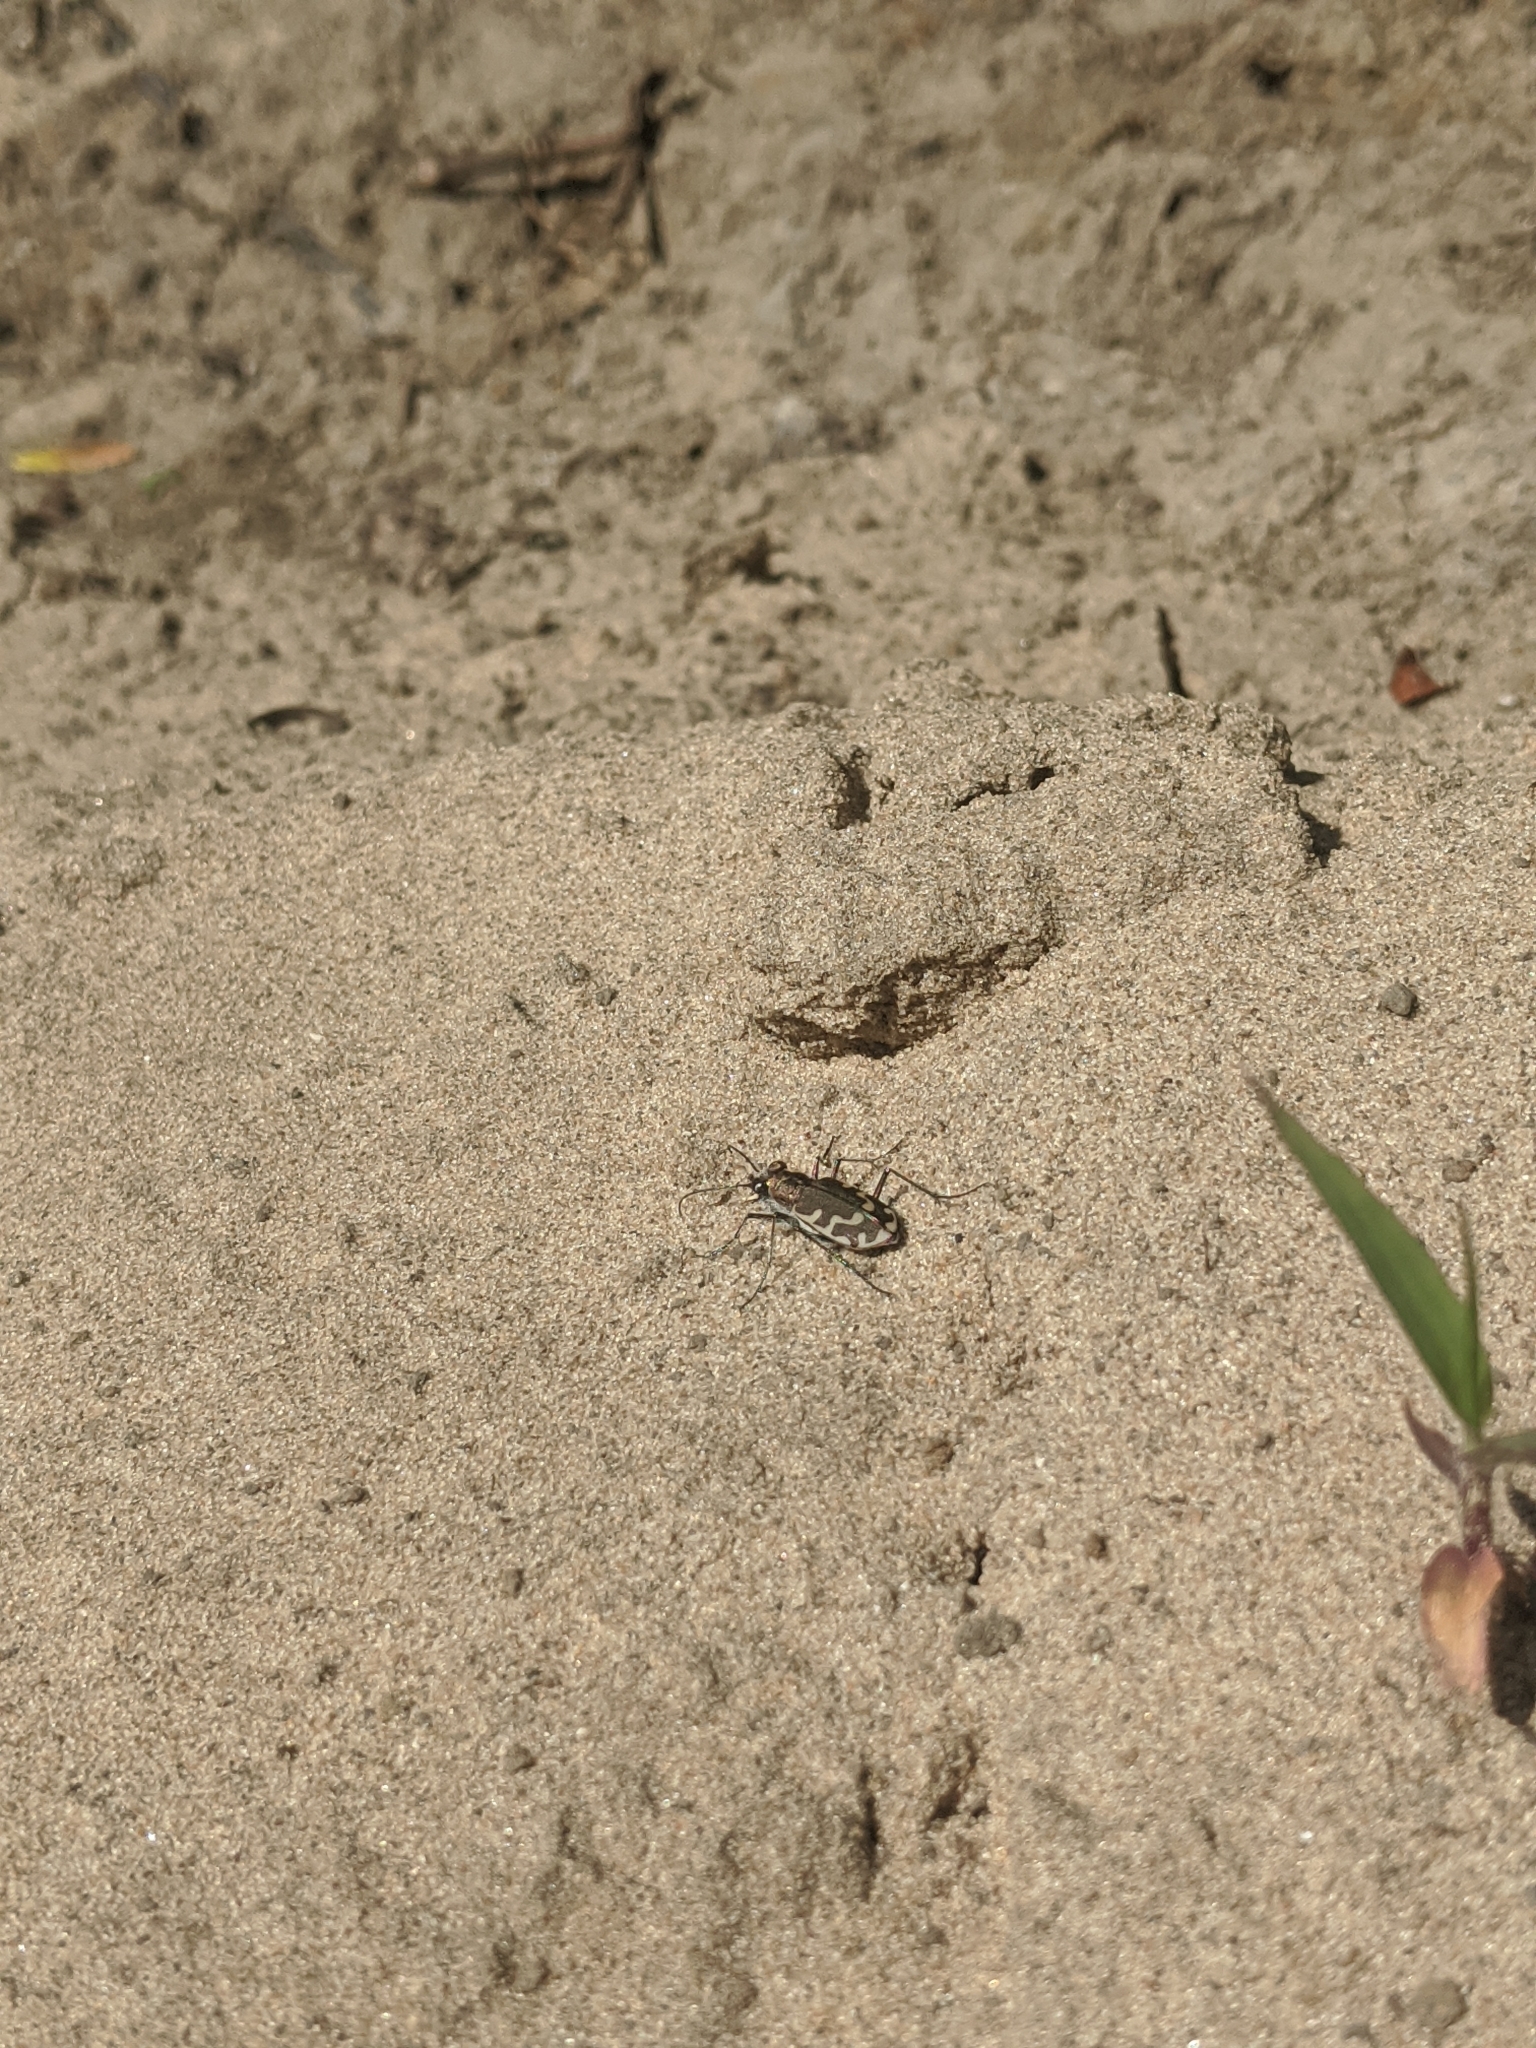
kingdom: Animalia
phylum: Arthropoda
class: Insecta
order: Coleoptera
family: Carabidae
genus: Cicindela
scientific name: Cicindela repanda
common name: Bronzed tiger beetle
